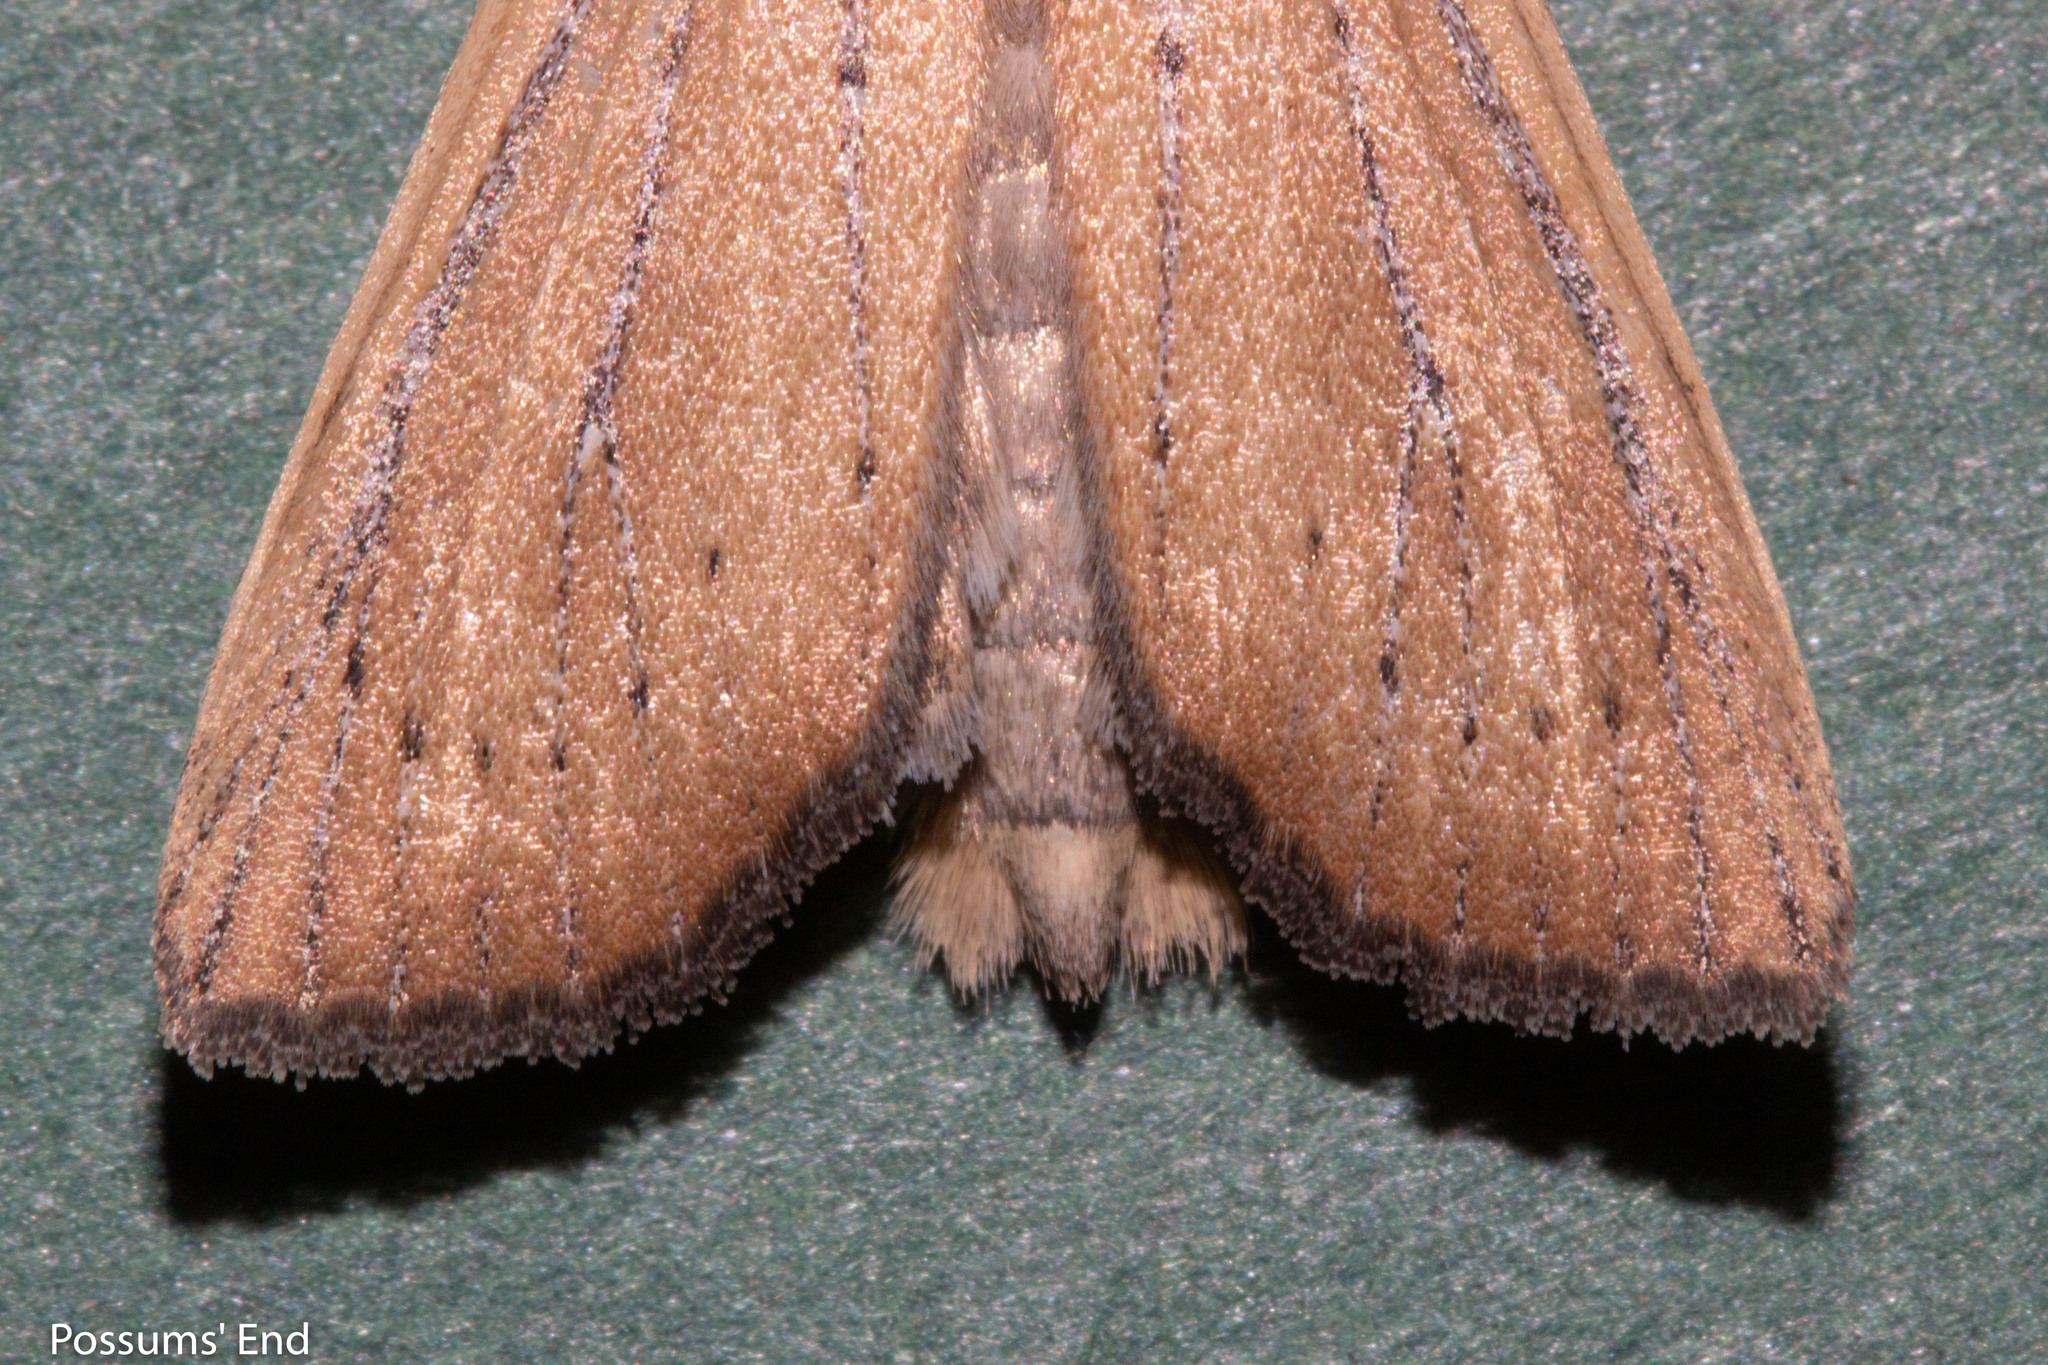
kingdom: Animalia
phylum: Arthropoda
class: Insecta
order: Lepidoptera
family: Noctuidae
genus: Ichneutica
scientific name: Ichneutica blenheimensis
